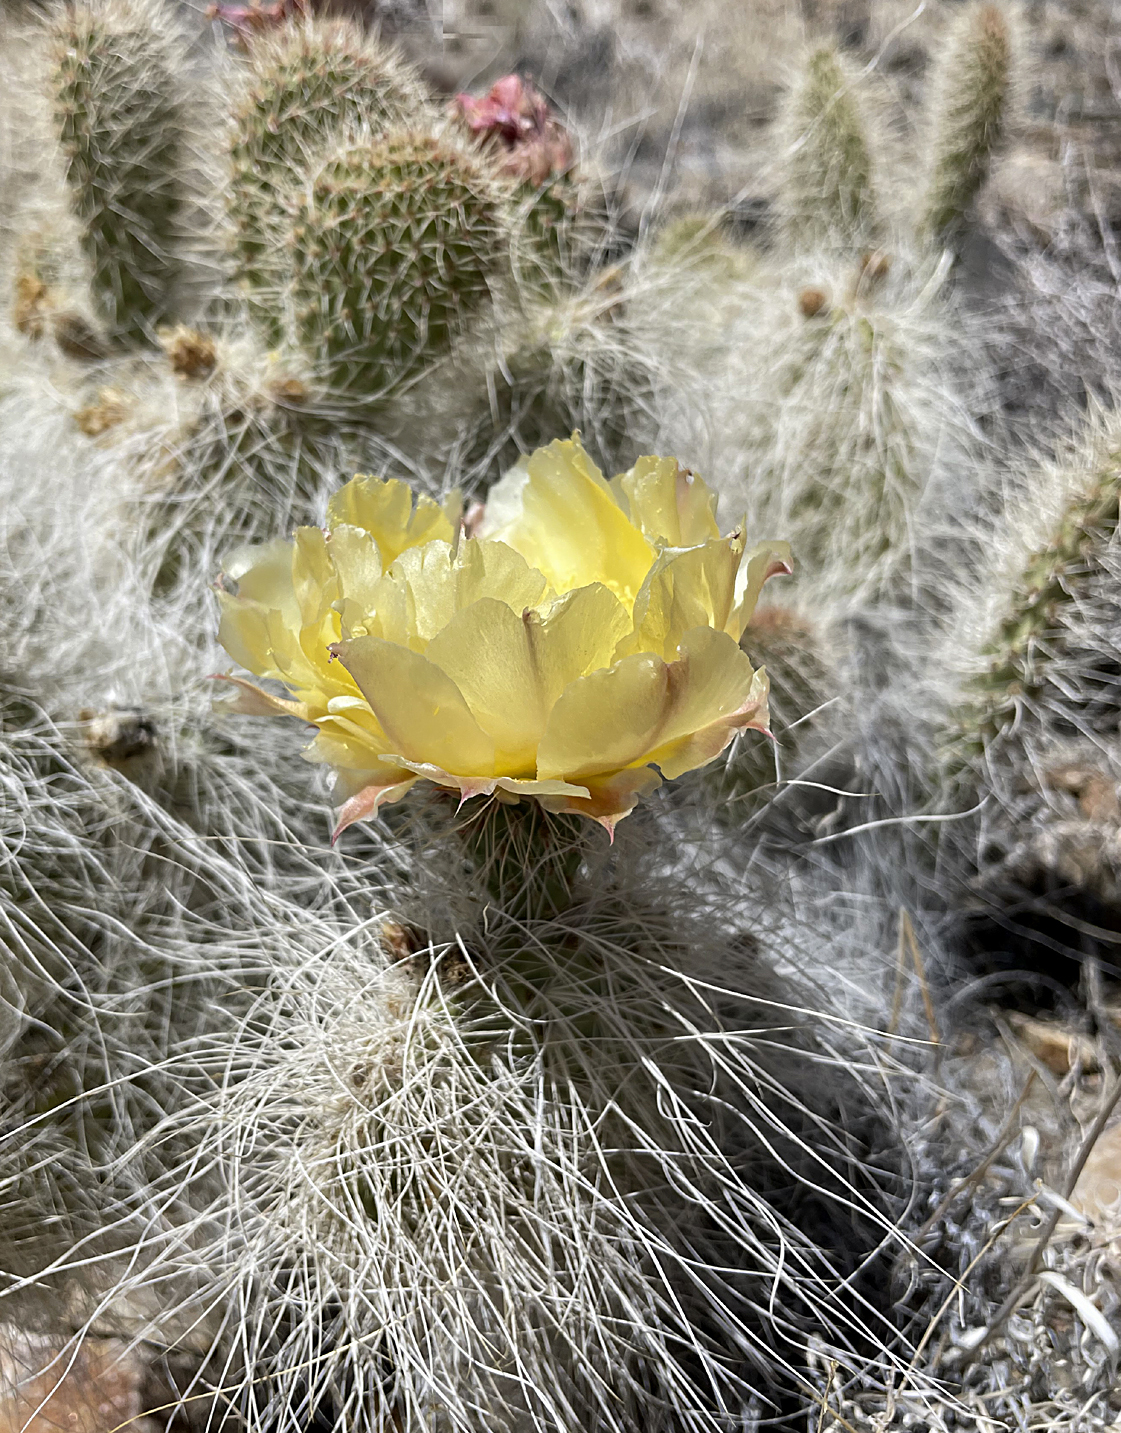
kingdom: Plantae
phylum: Tracheophyta
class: Magnoliopsida
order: Caryophyllales
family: Cactaceae
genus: Opuntia
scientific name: Opuntia polyacantha
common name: Plains prickly-pear
